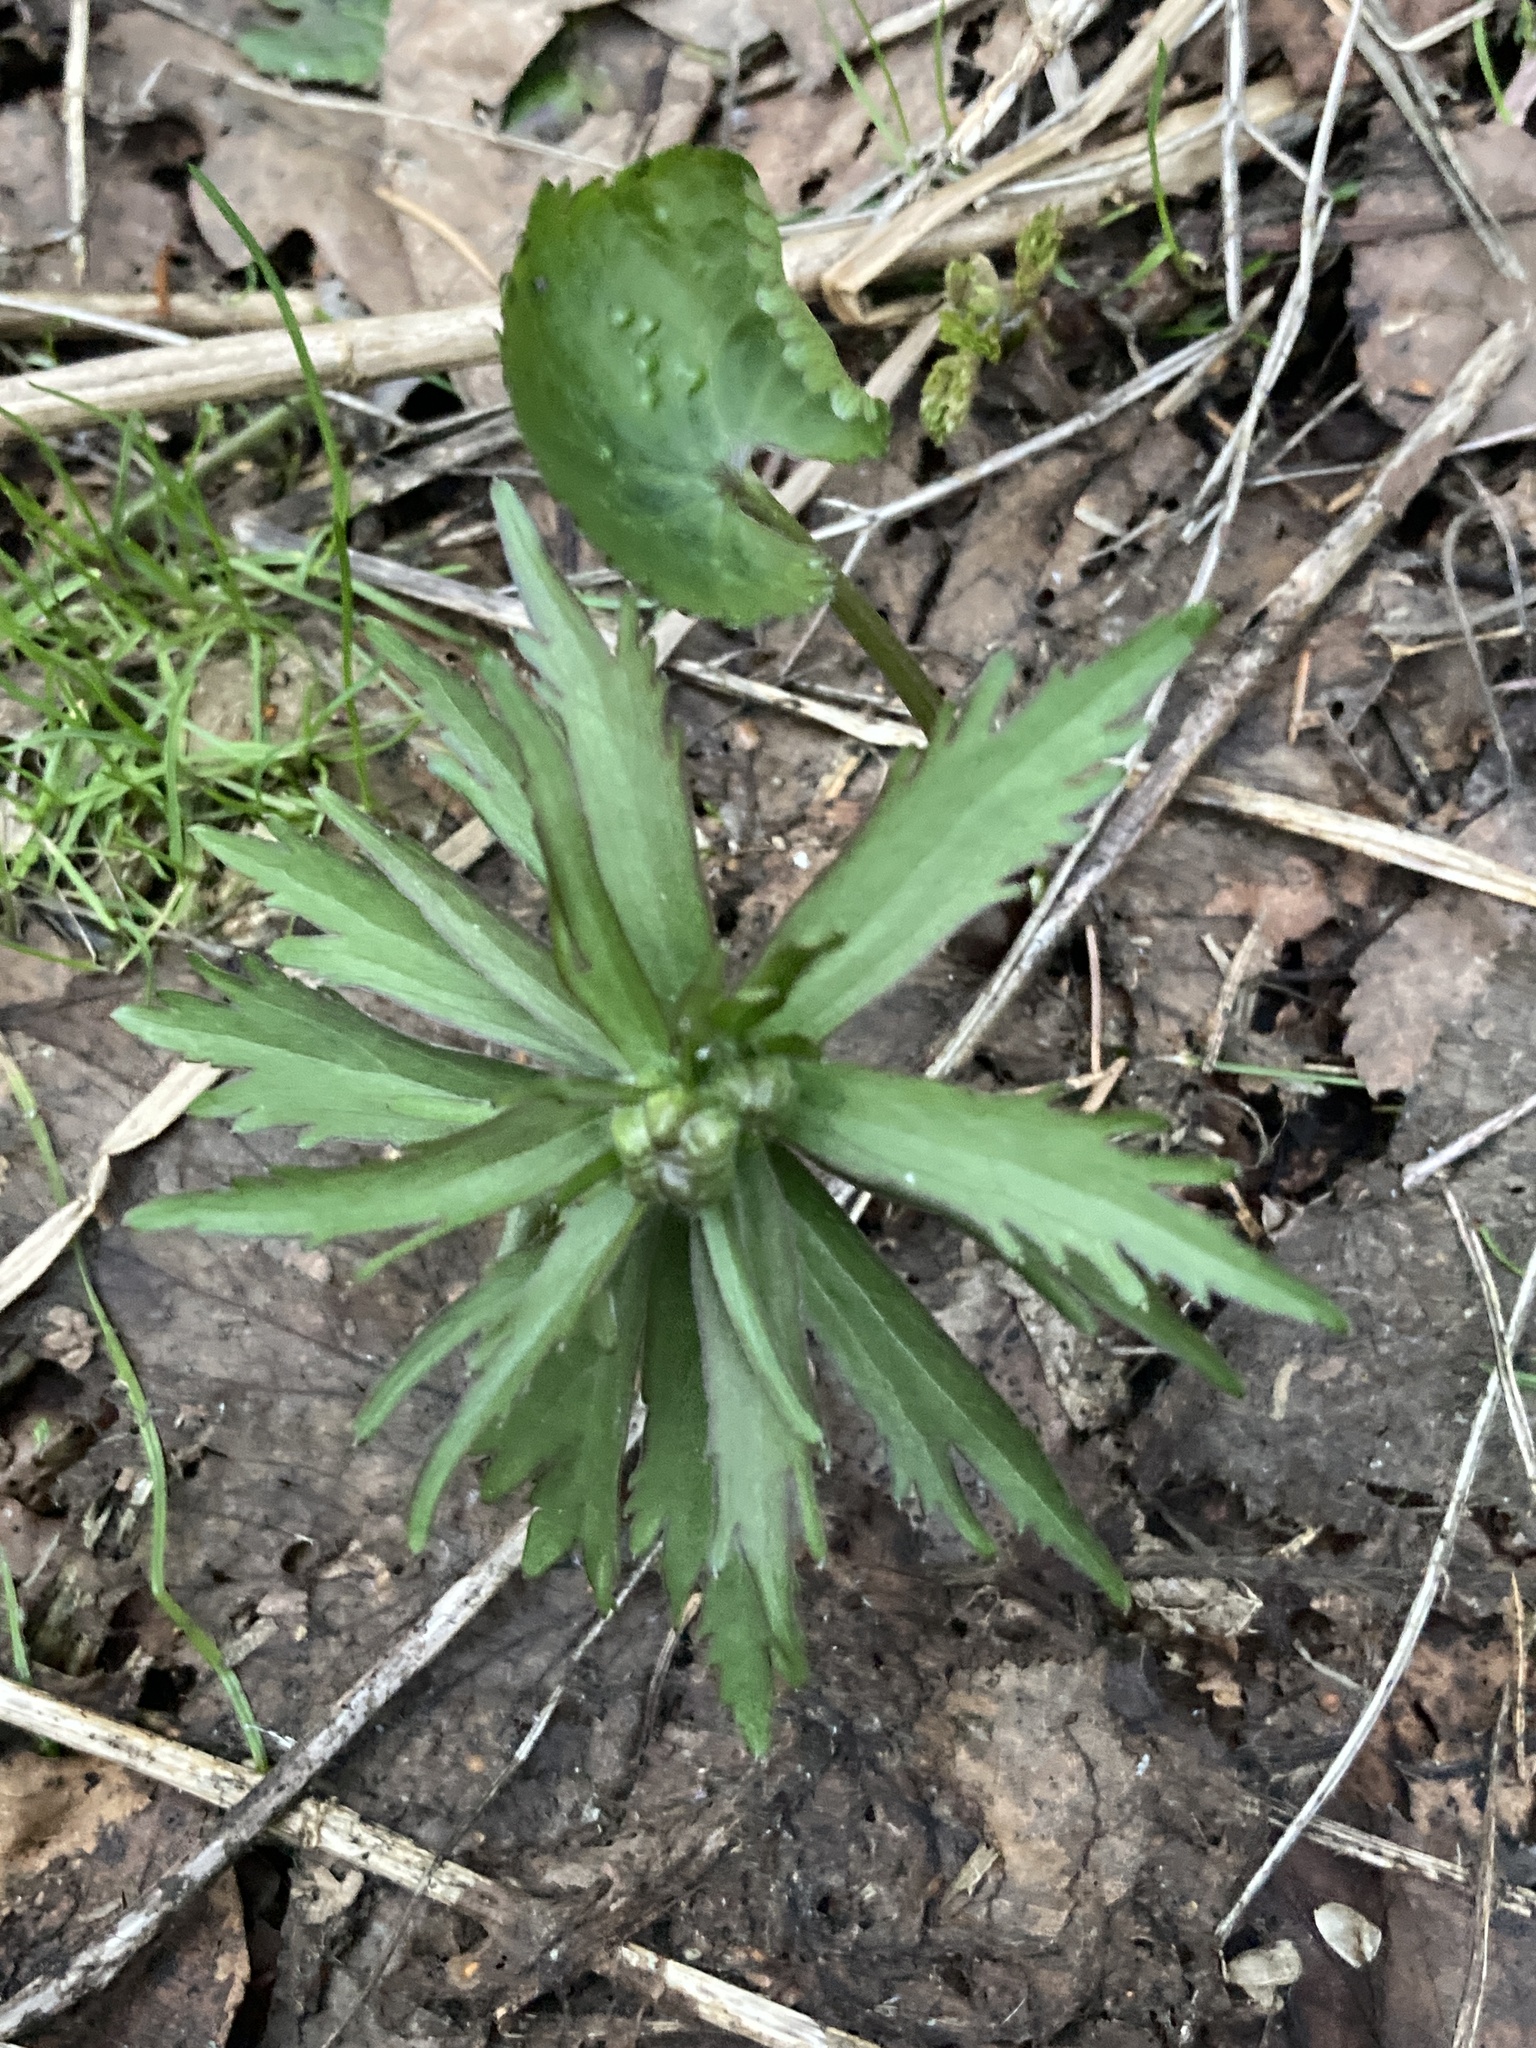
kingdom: Plantae
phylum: Tracheophyta
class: Magnoliopsida
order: Ranunculales
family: Ranunculaceae
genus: Ranunculus
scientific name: Ranunculus cassubicus
